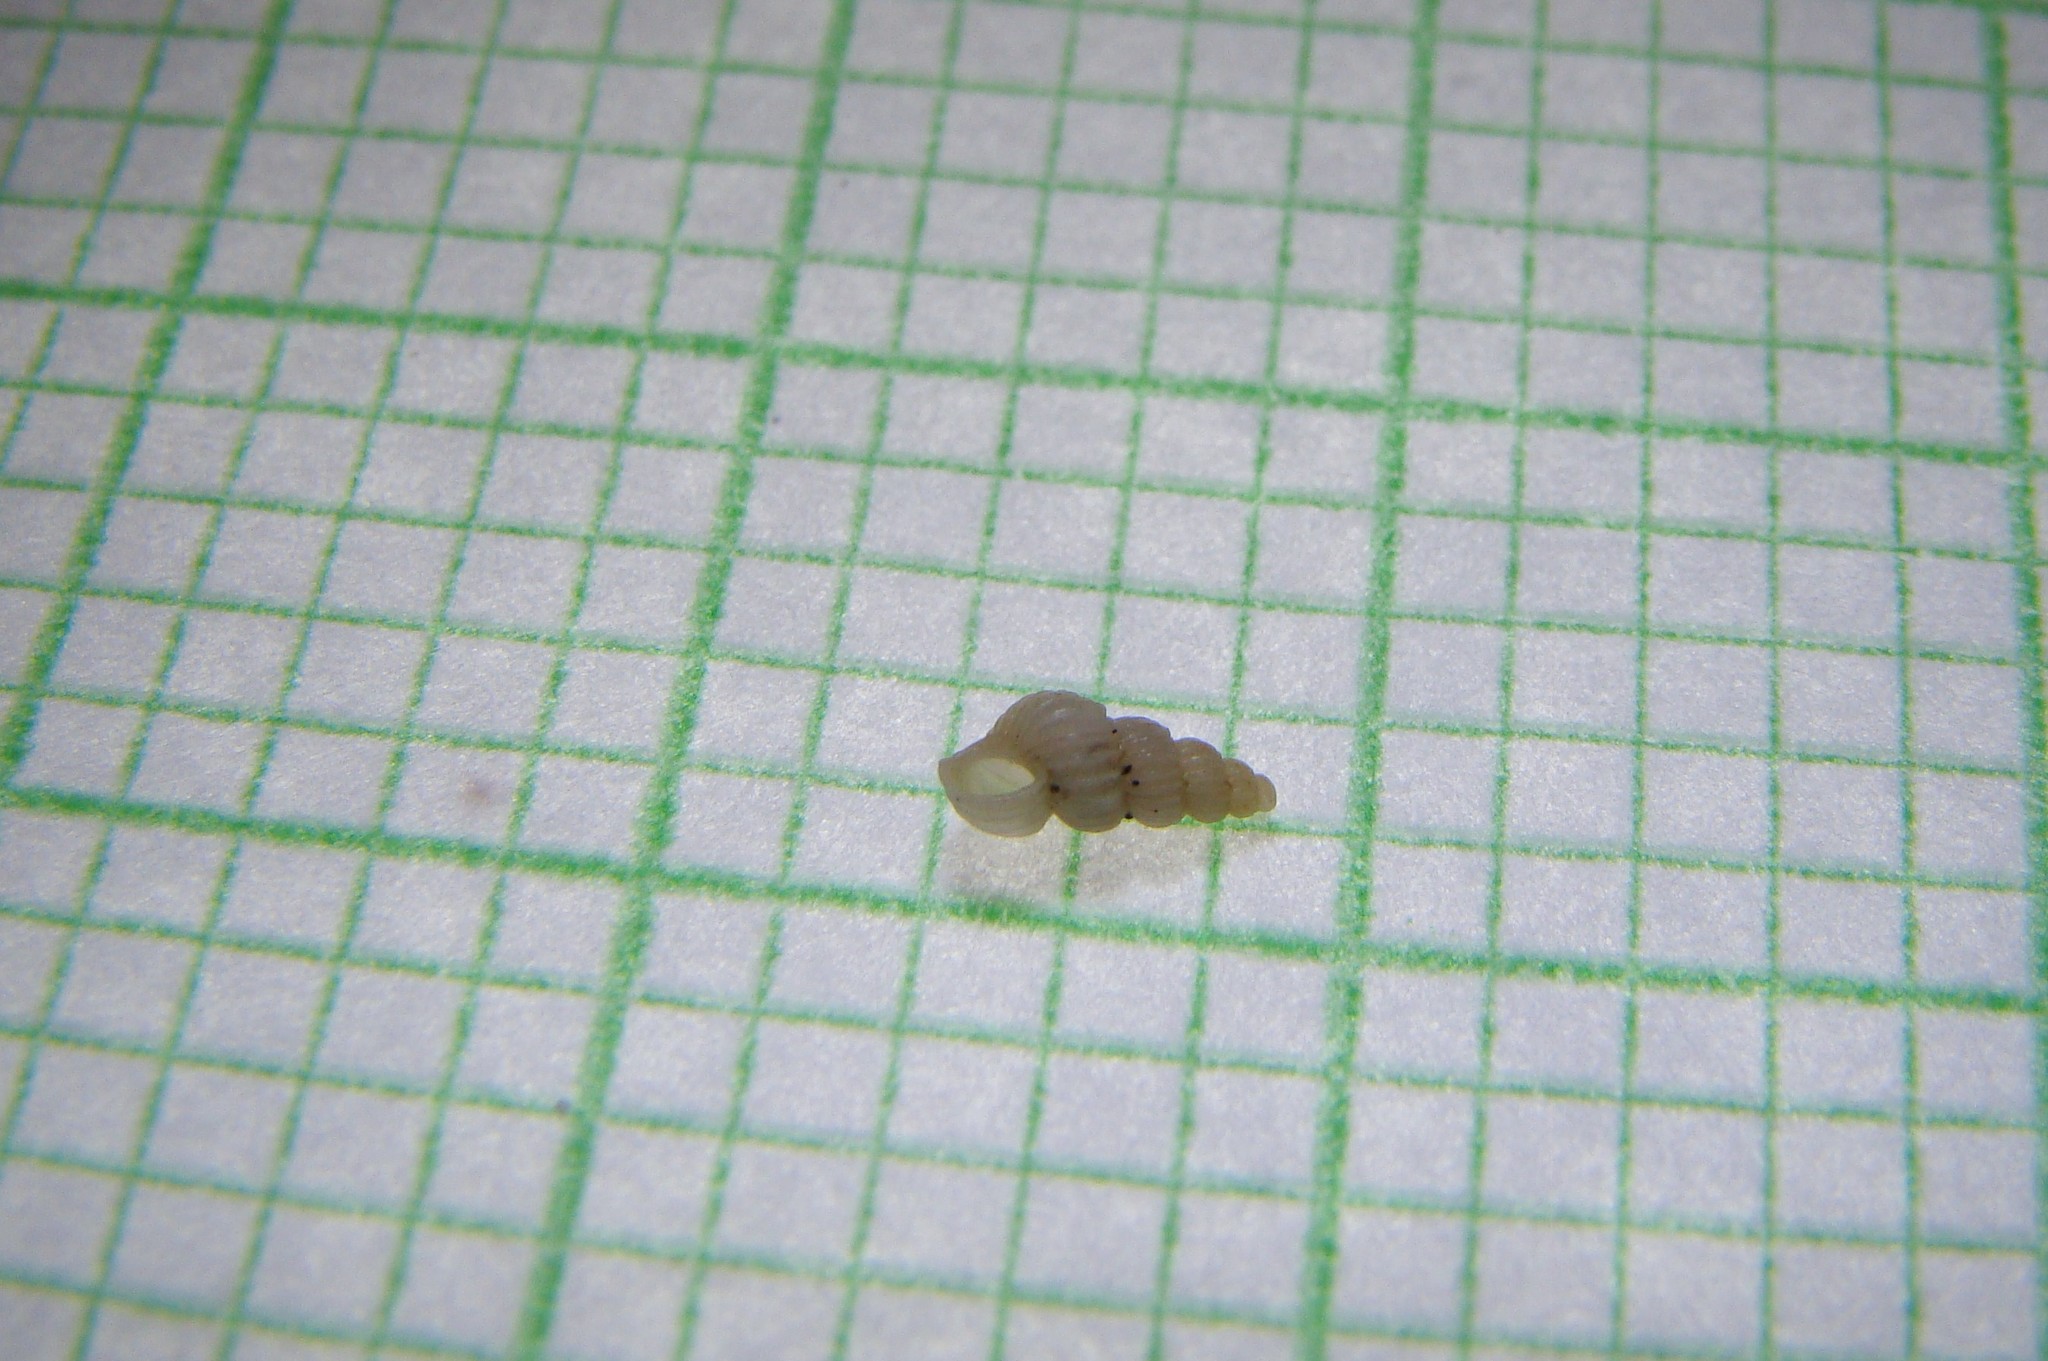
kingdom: Animalia
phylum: Mollusca
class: Gastropoda
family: Epitoniidae
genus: Epitonium
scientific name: Epitonium jukesianum
